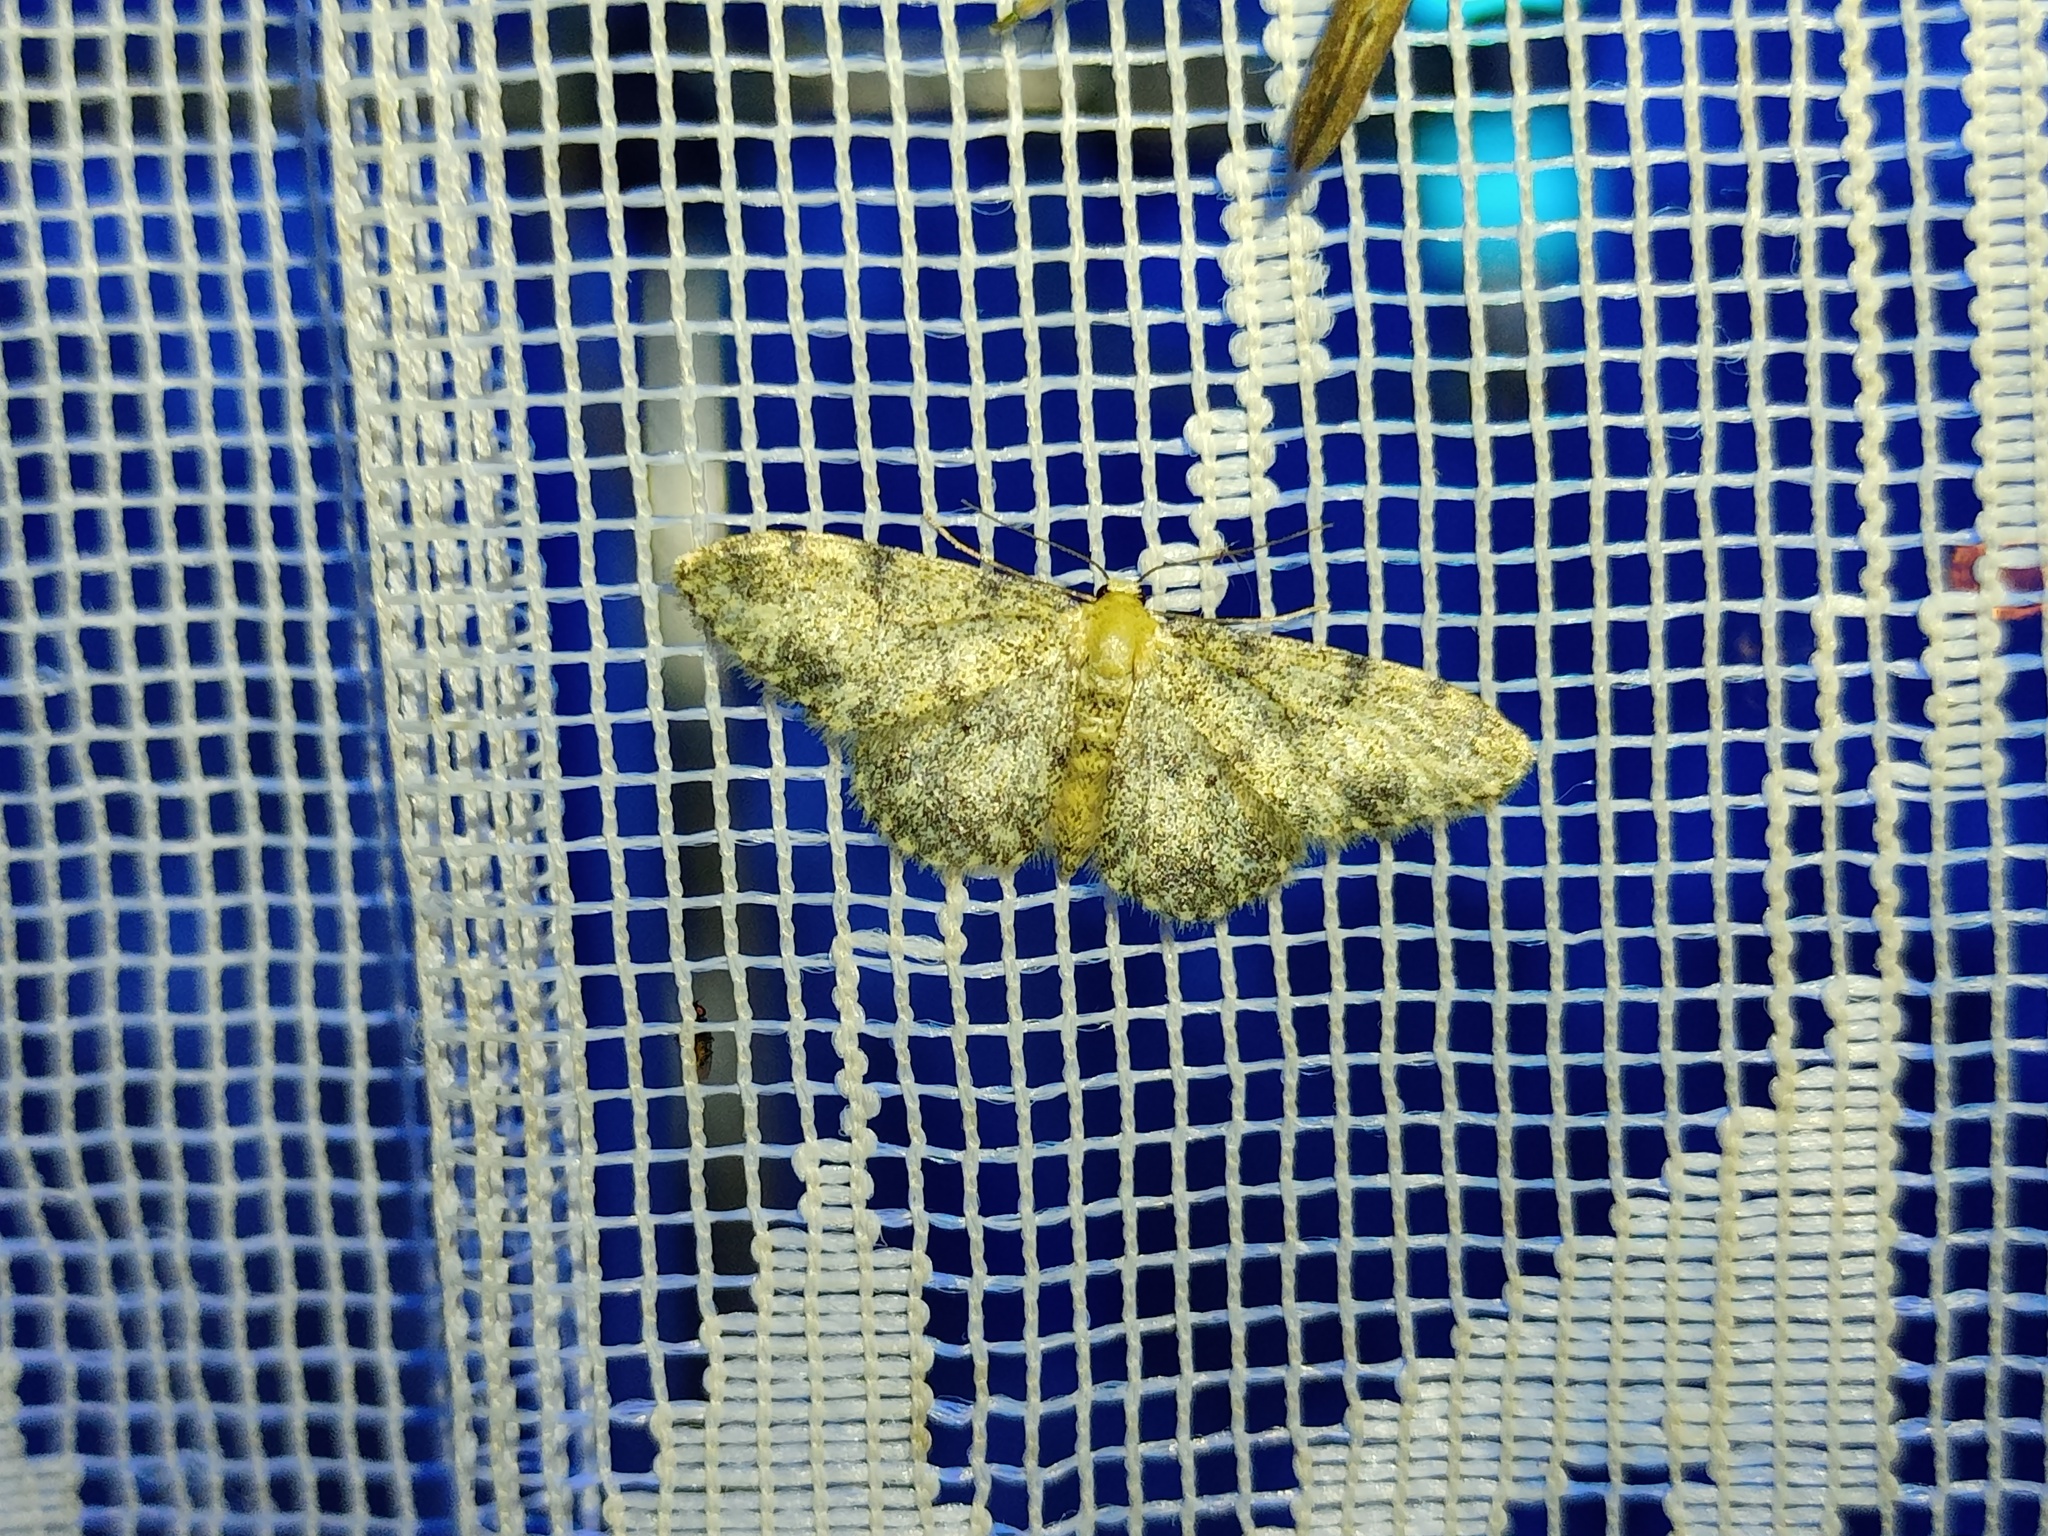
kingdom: Animalia
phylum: Arthropoda
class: Insecta
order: Lepidoptera
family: Geometridae
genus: Idaea
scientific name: Idaea contiguaria
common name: Weaver's wave
